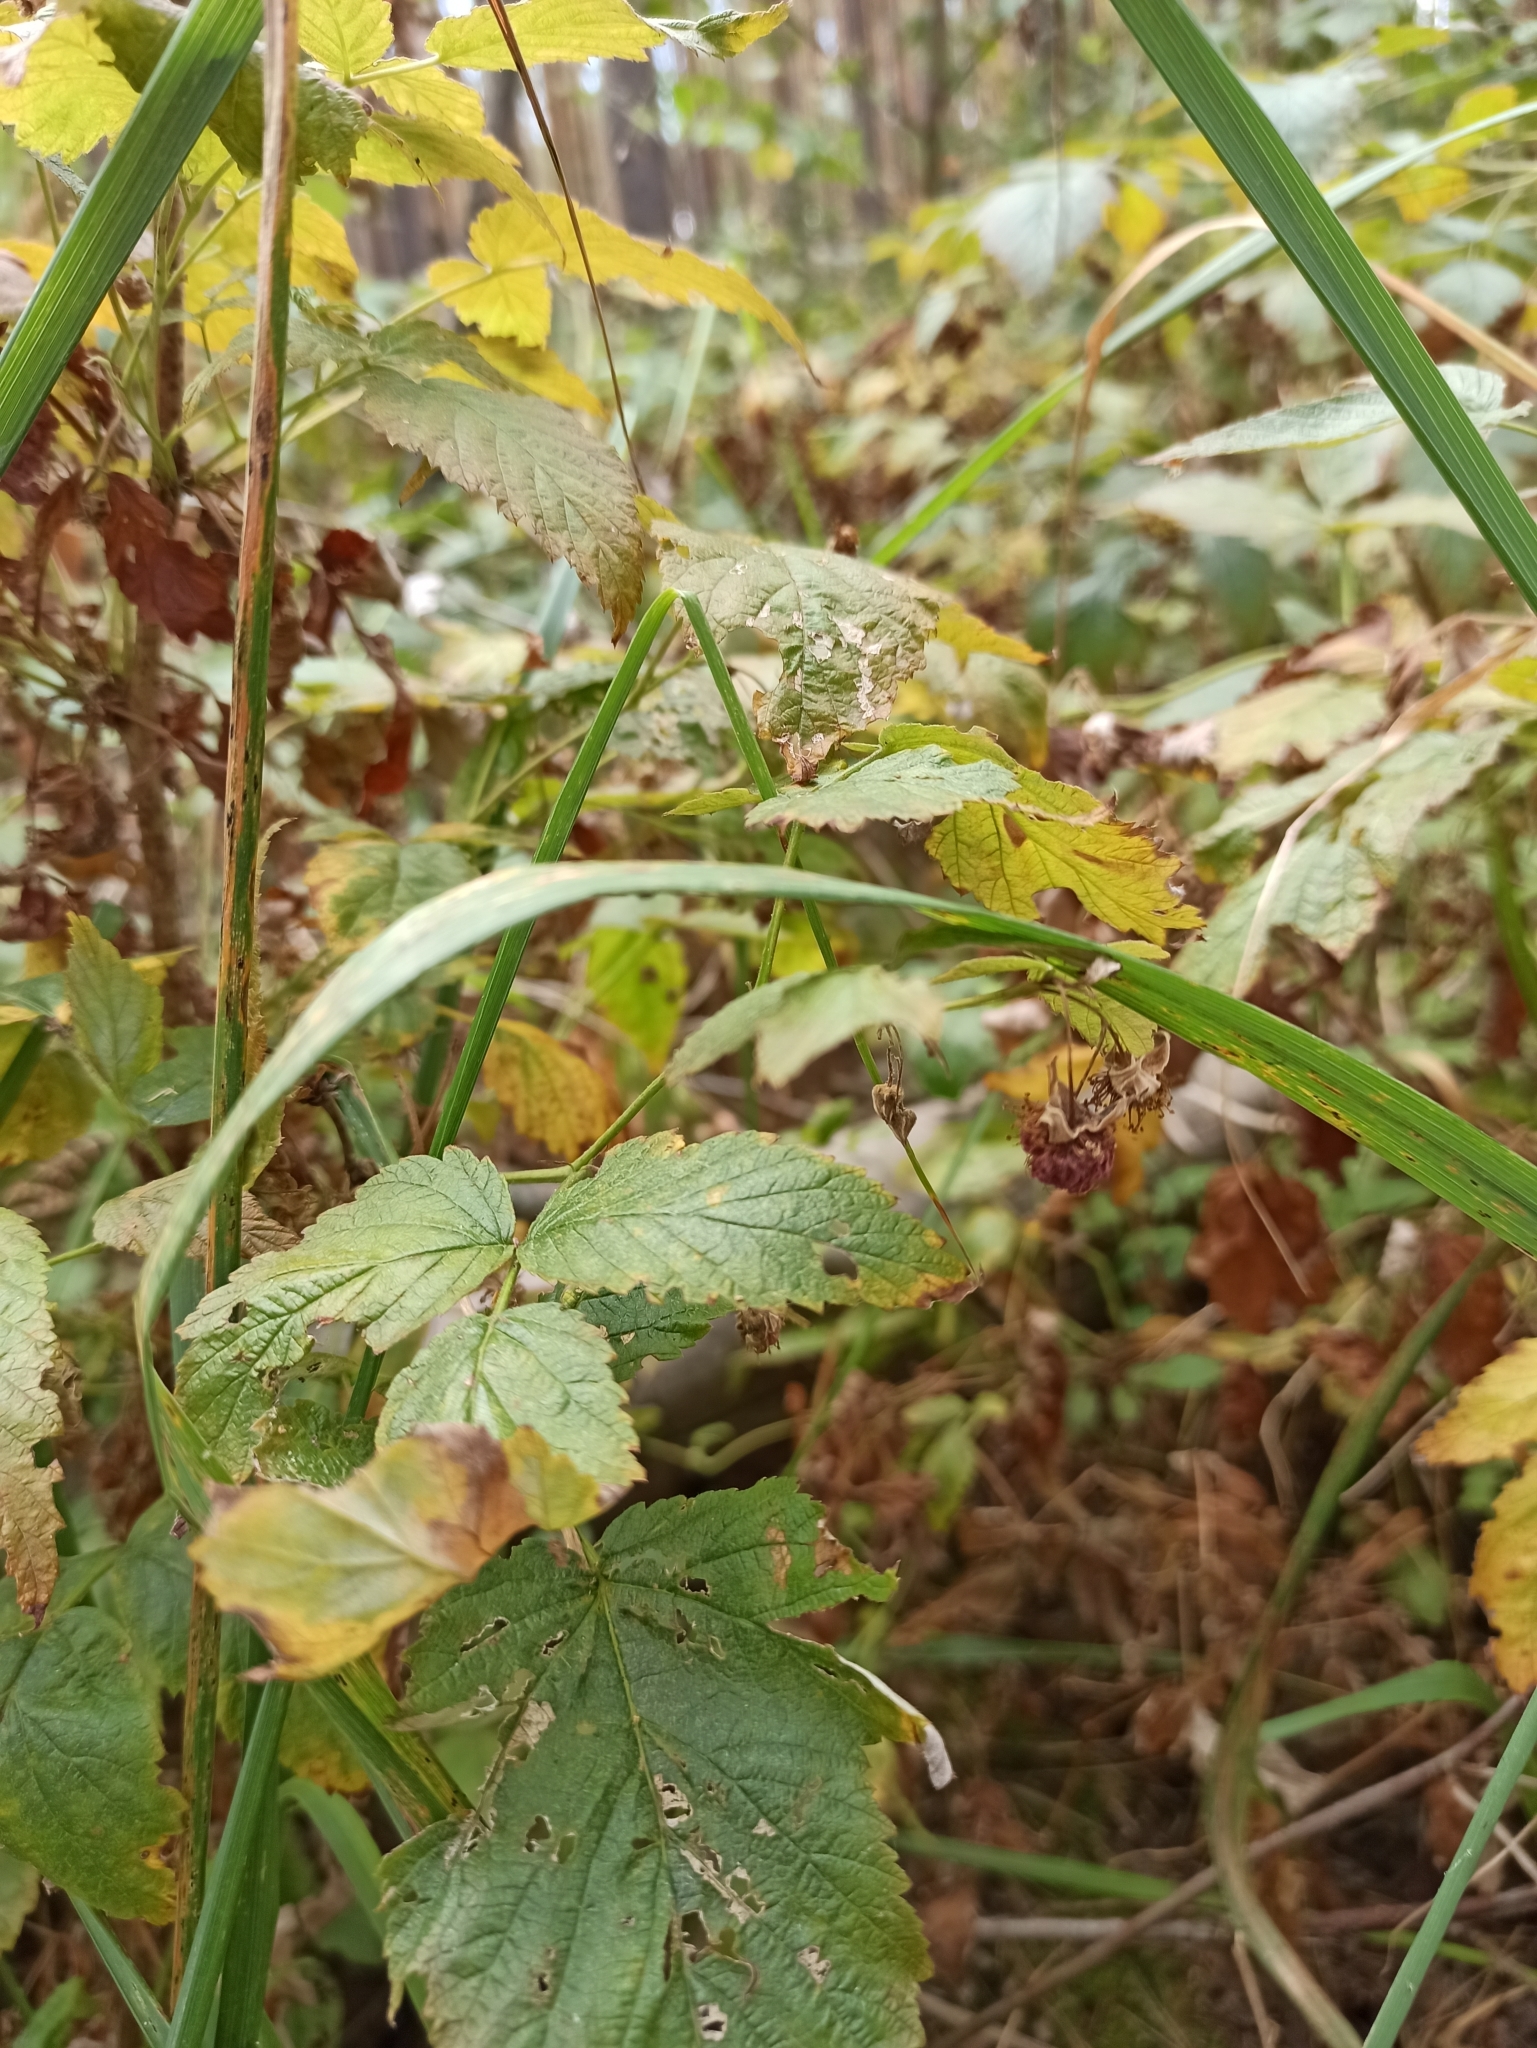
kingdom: Plantae
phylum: Tracheophyta
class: Magnoliopsida
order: Rosales
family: Rosaceae
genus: Rubus
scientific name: Rubus idaeus
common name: Raspberry
